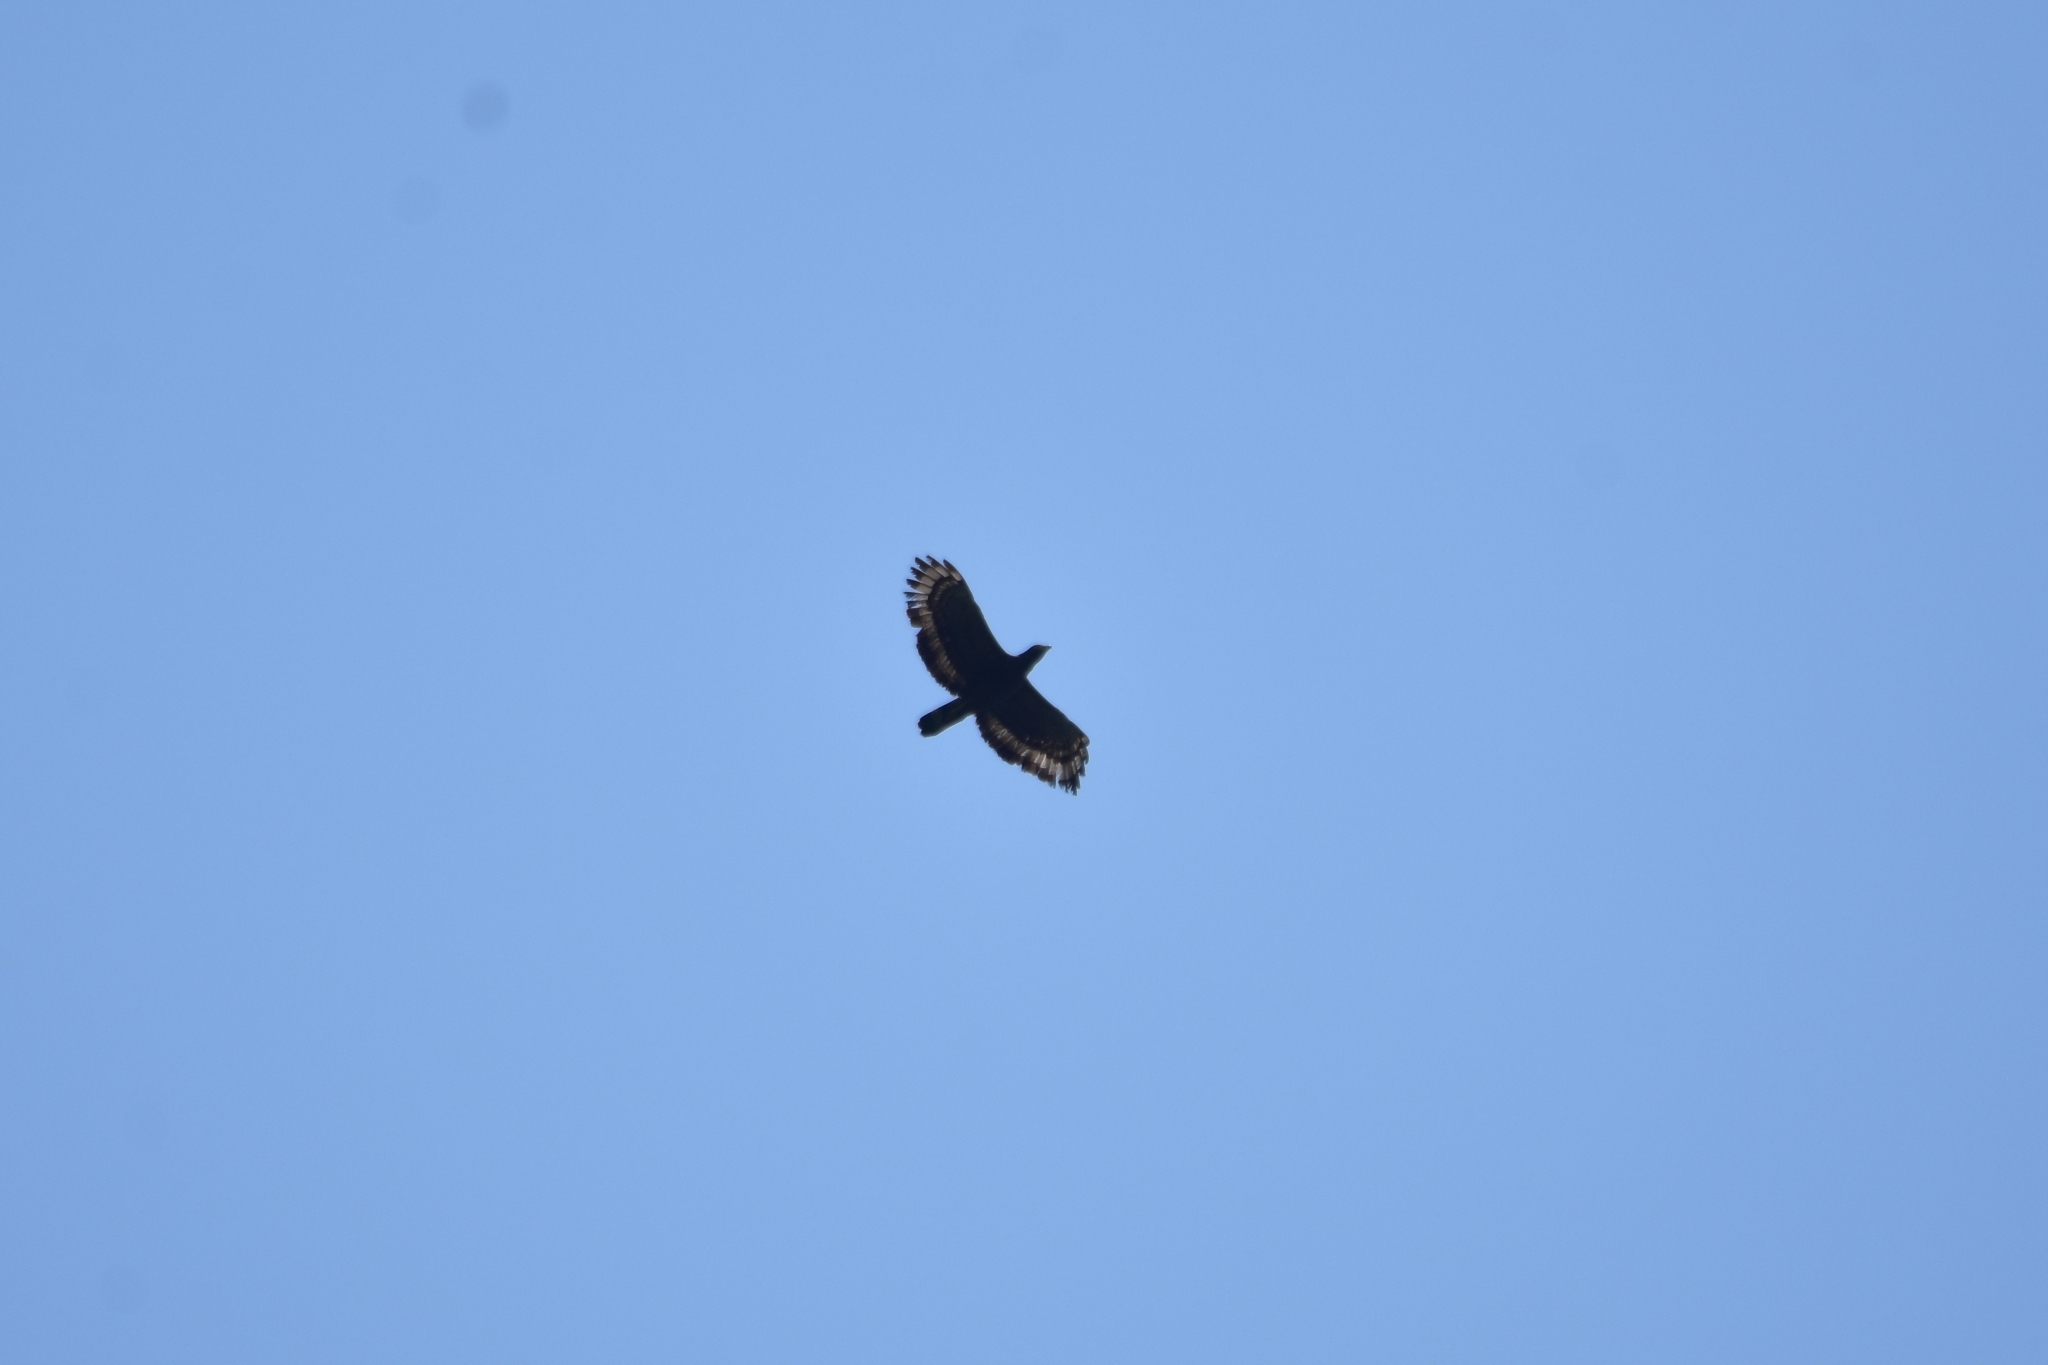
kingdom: Animalia
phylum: Chordata
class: Aves
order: Accipitriformes
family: Accipitridae
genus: Pernis
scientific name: Pernis ptilorhynchus
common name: Crested honey buzzard
